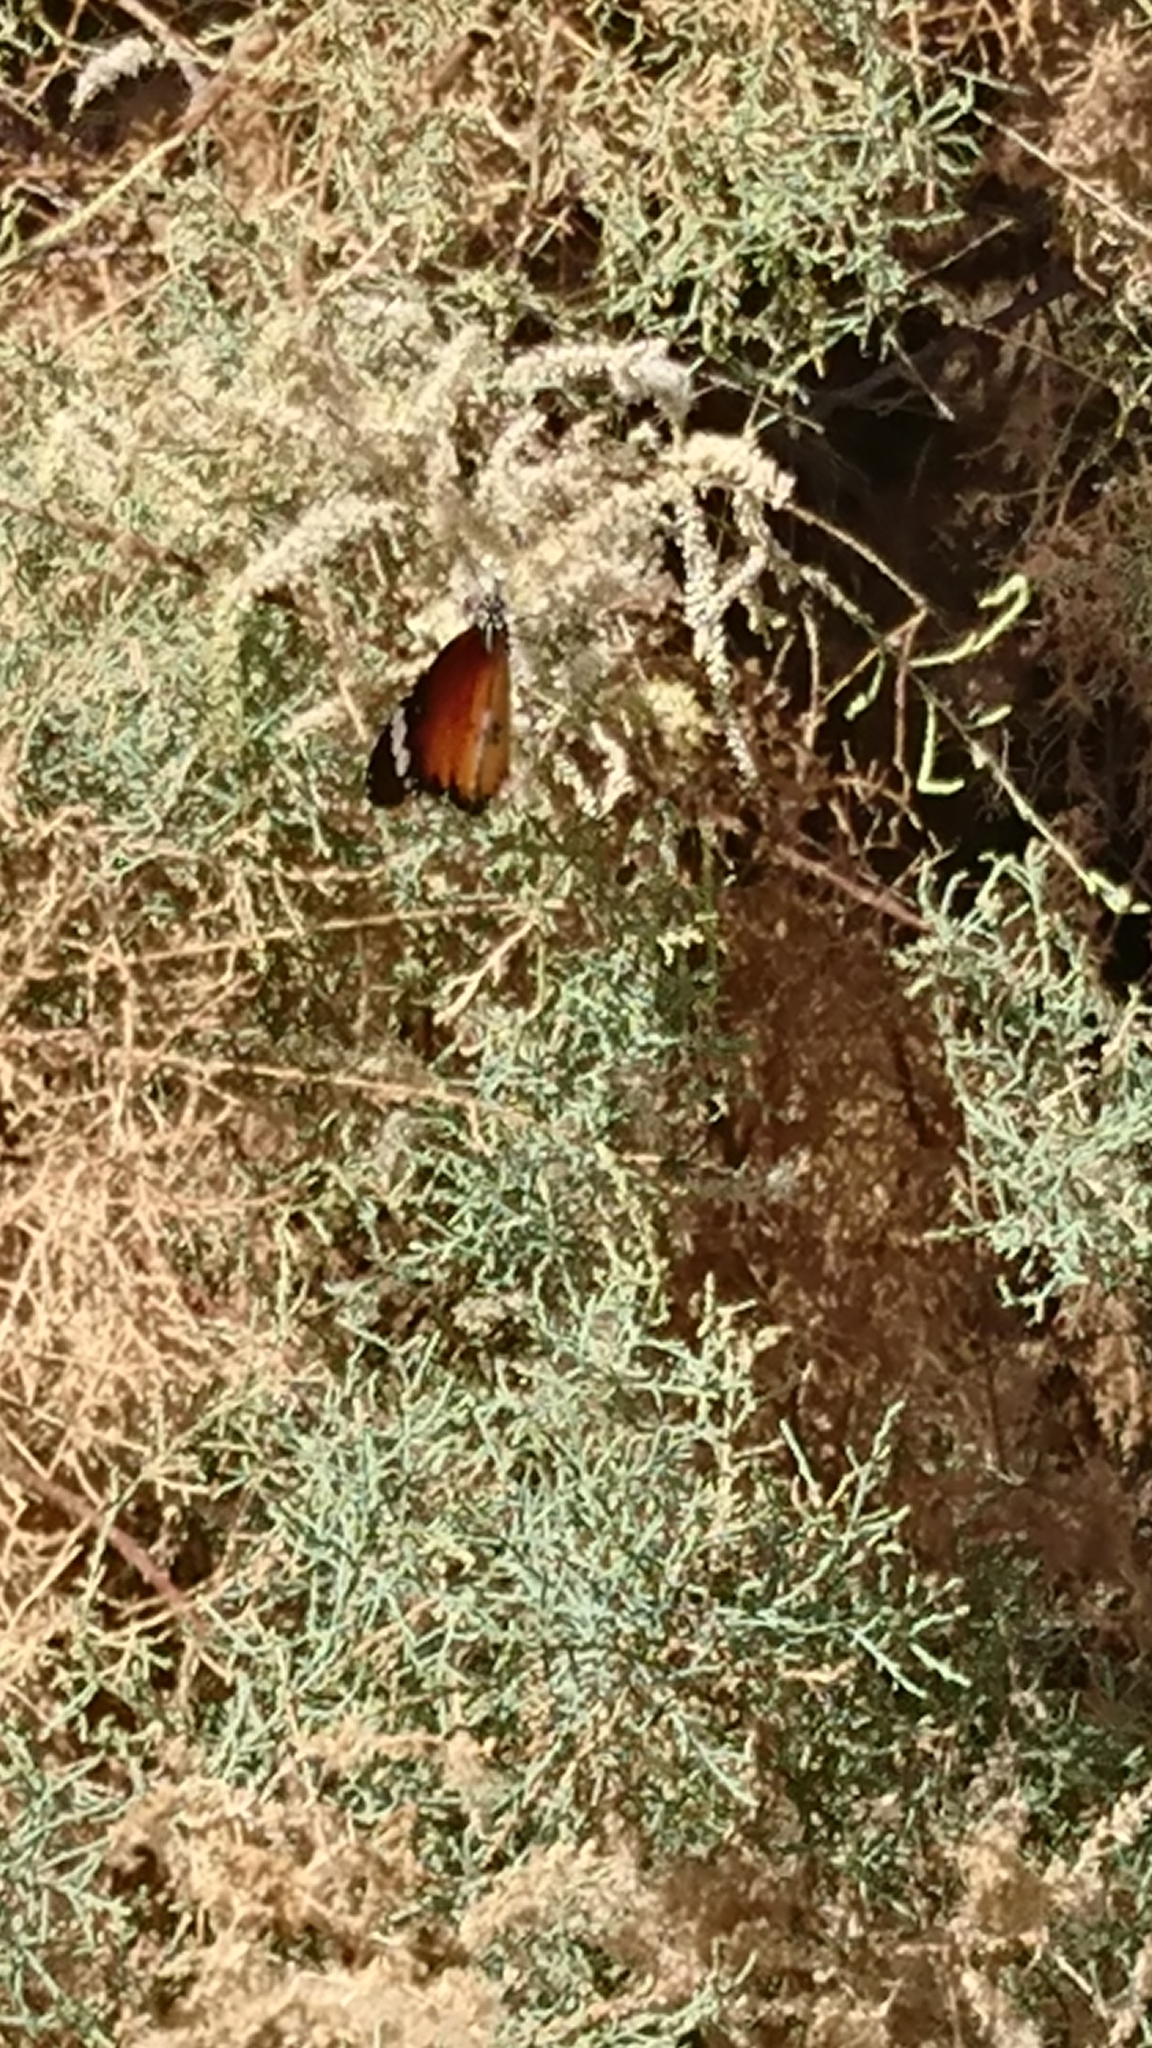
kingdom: Animalia
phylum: Arthropoda
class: Insecta
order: Lepidoptera
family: Nymphalidae
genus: Danaus
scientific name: Danaus chrysippus
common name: Plain tiger
